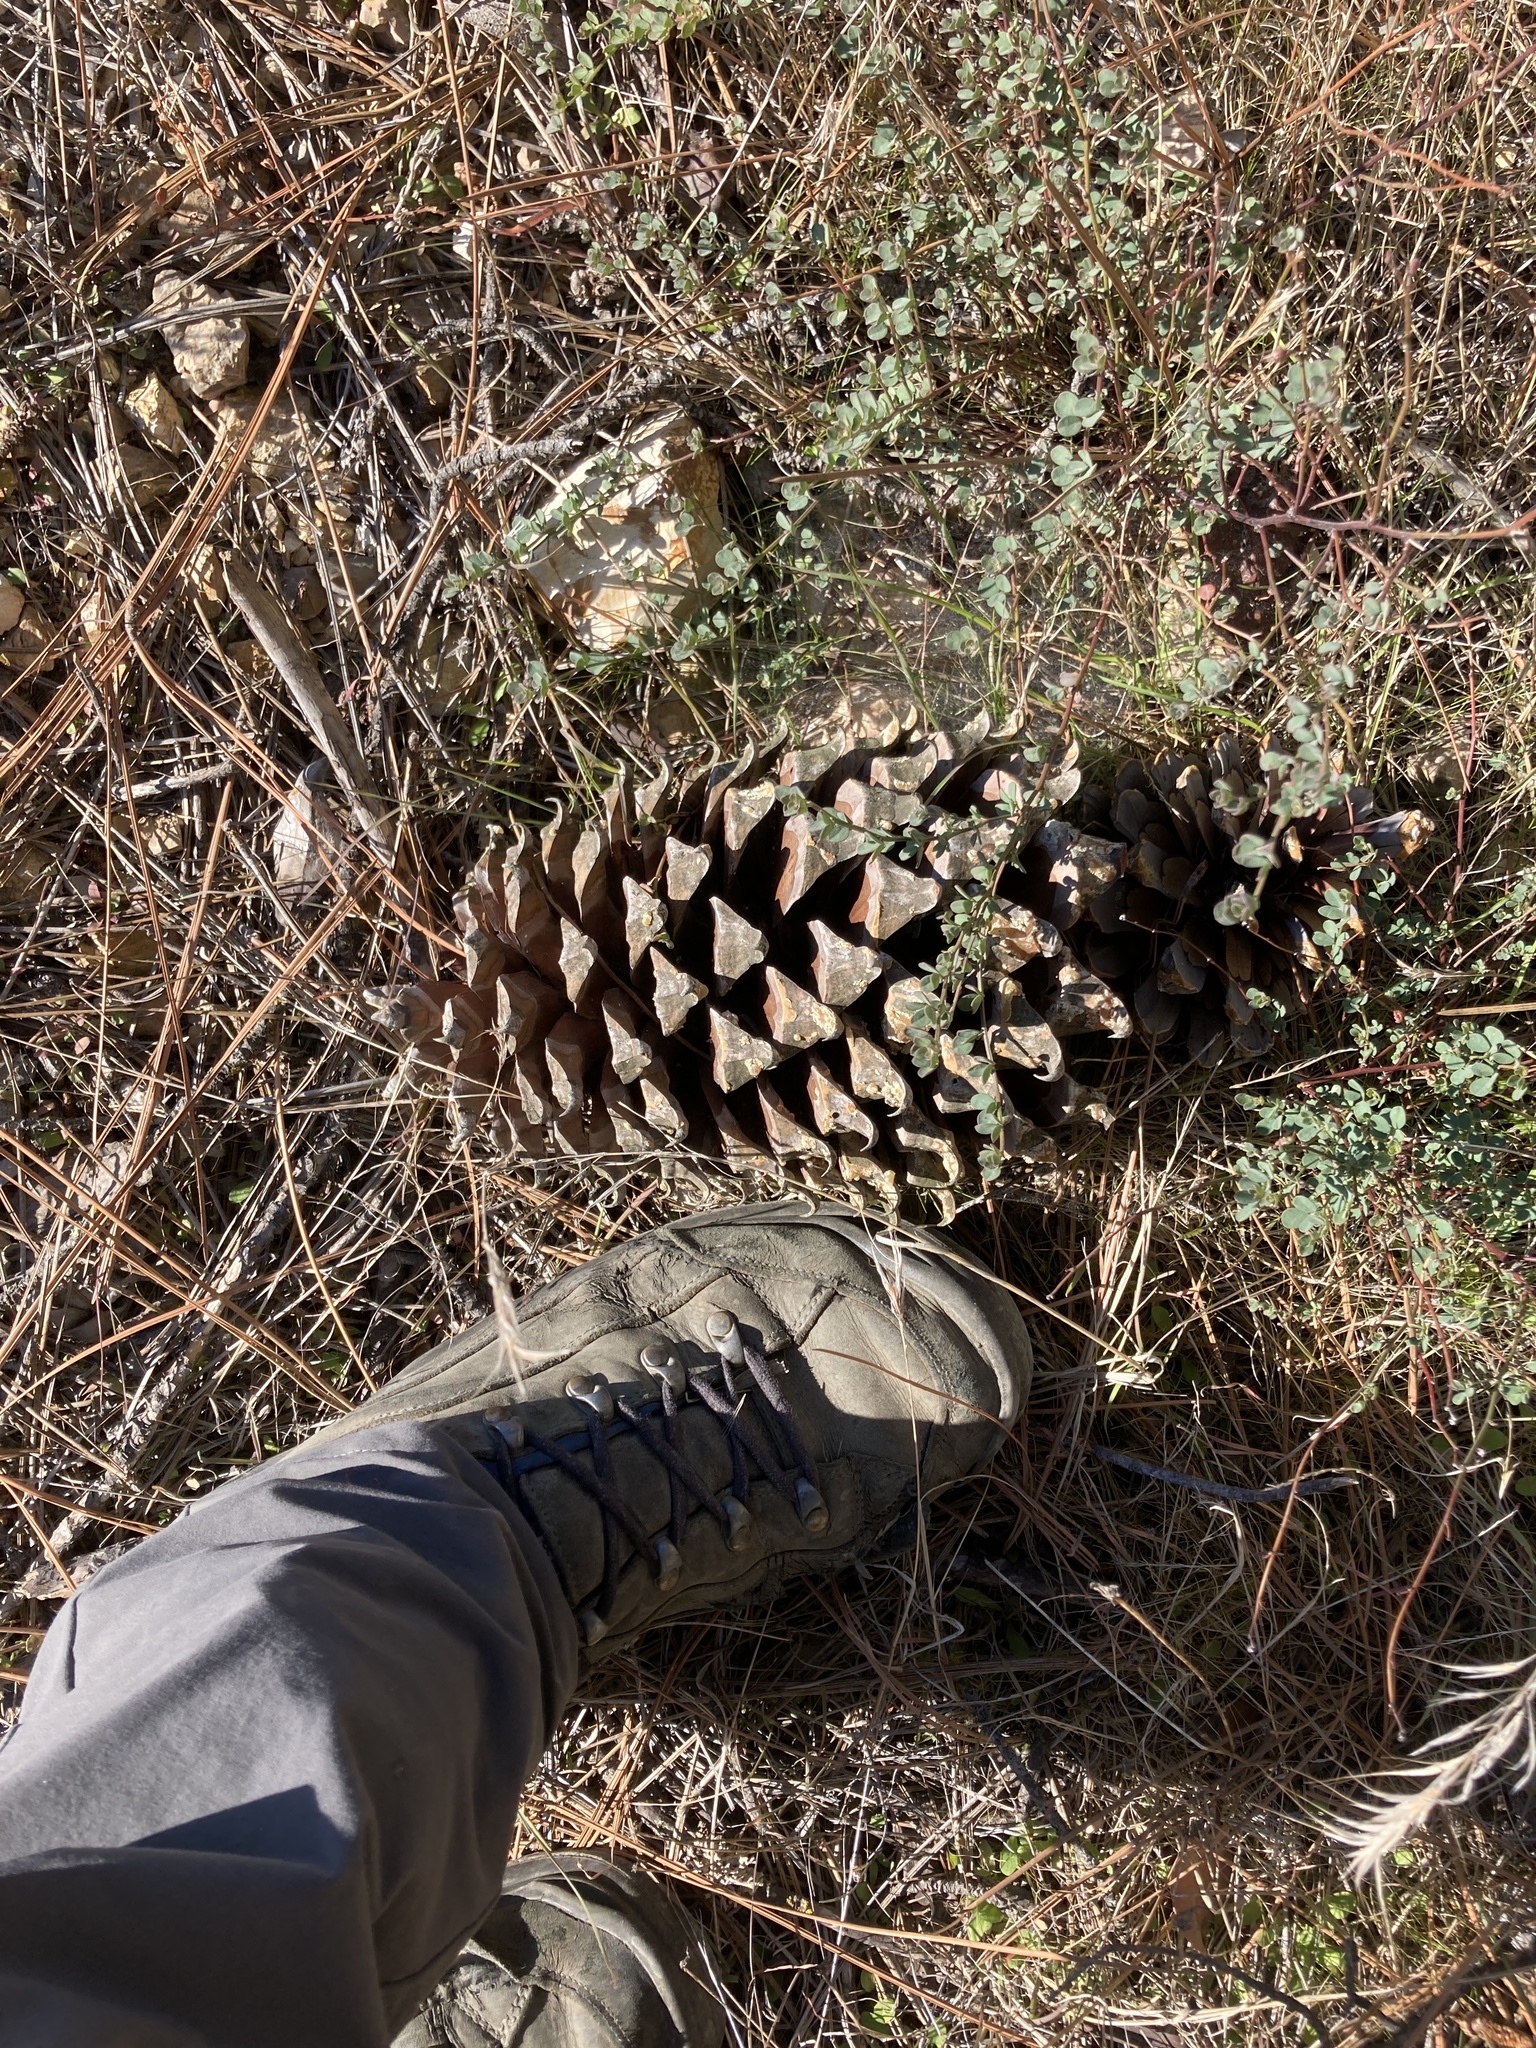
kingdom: Plantae
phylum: Tracheophyta
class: Pinopsida
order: Pinales
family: Pinaceae
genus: Pinus
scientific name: Pinus coulteri
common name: Coulter pine
